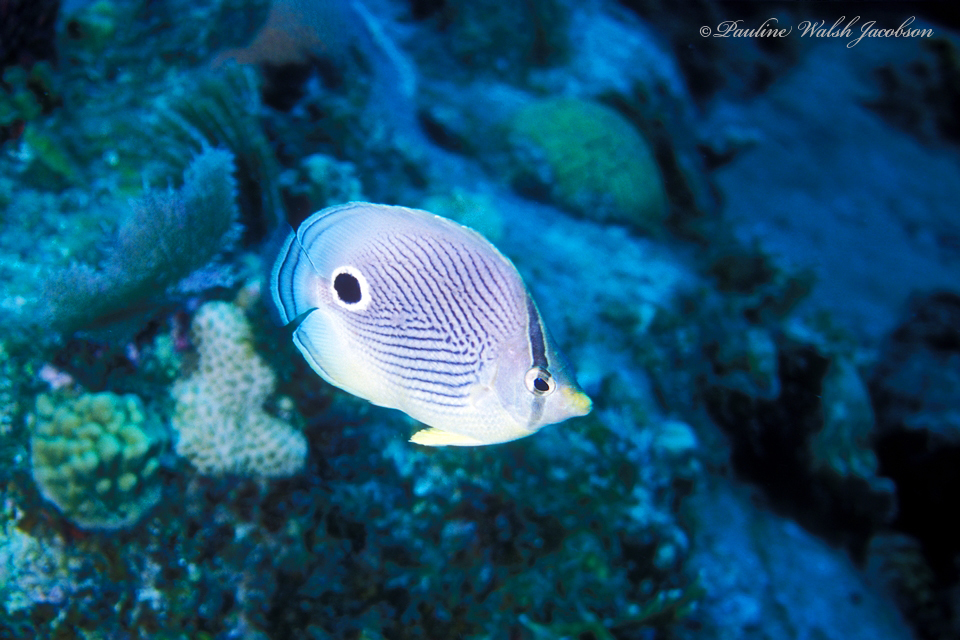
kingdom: Animalia
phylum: Chordata
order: Perciformes
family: Chaetodontidae
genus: Chaetodon
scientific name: Chaetodon capistratus
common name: Kete
